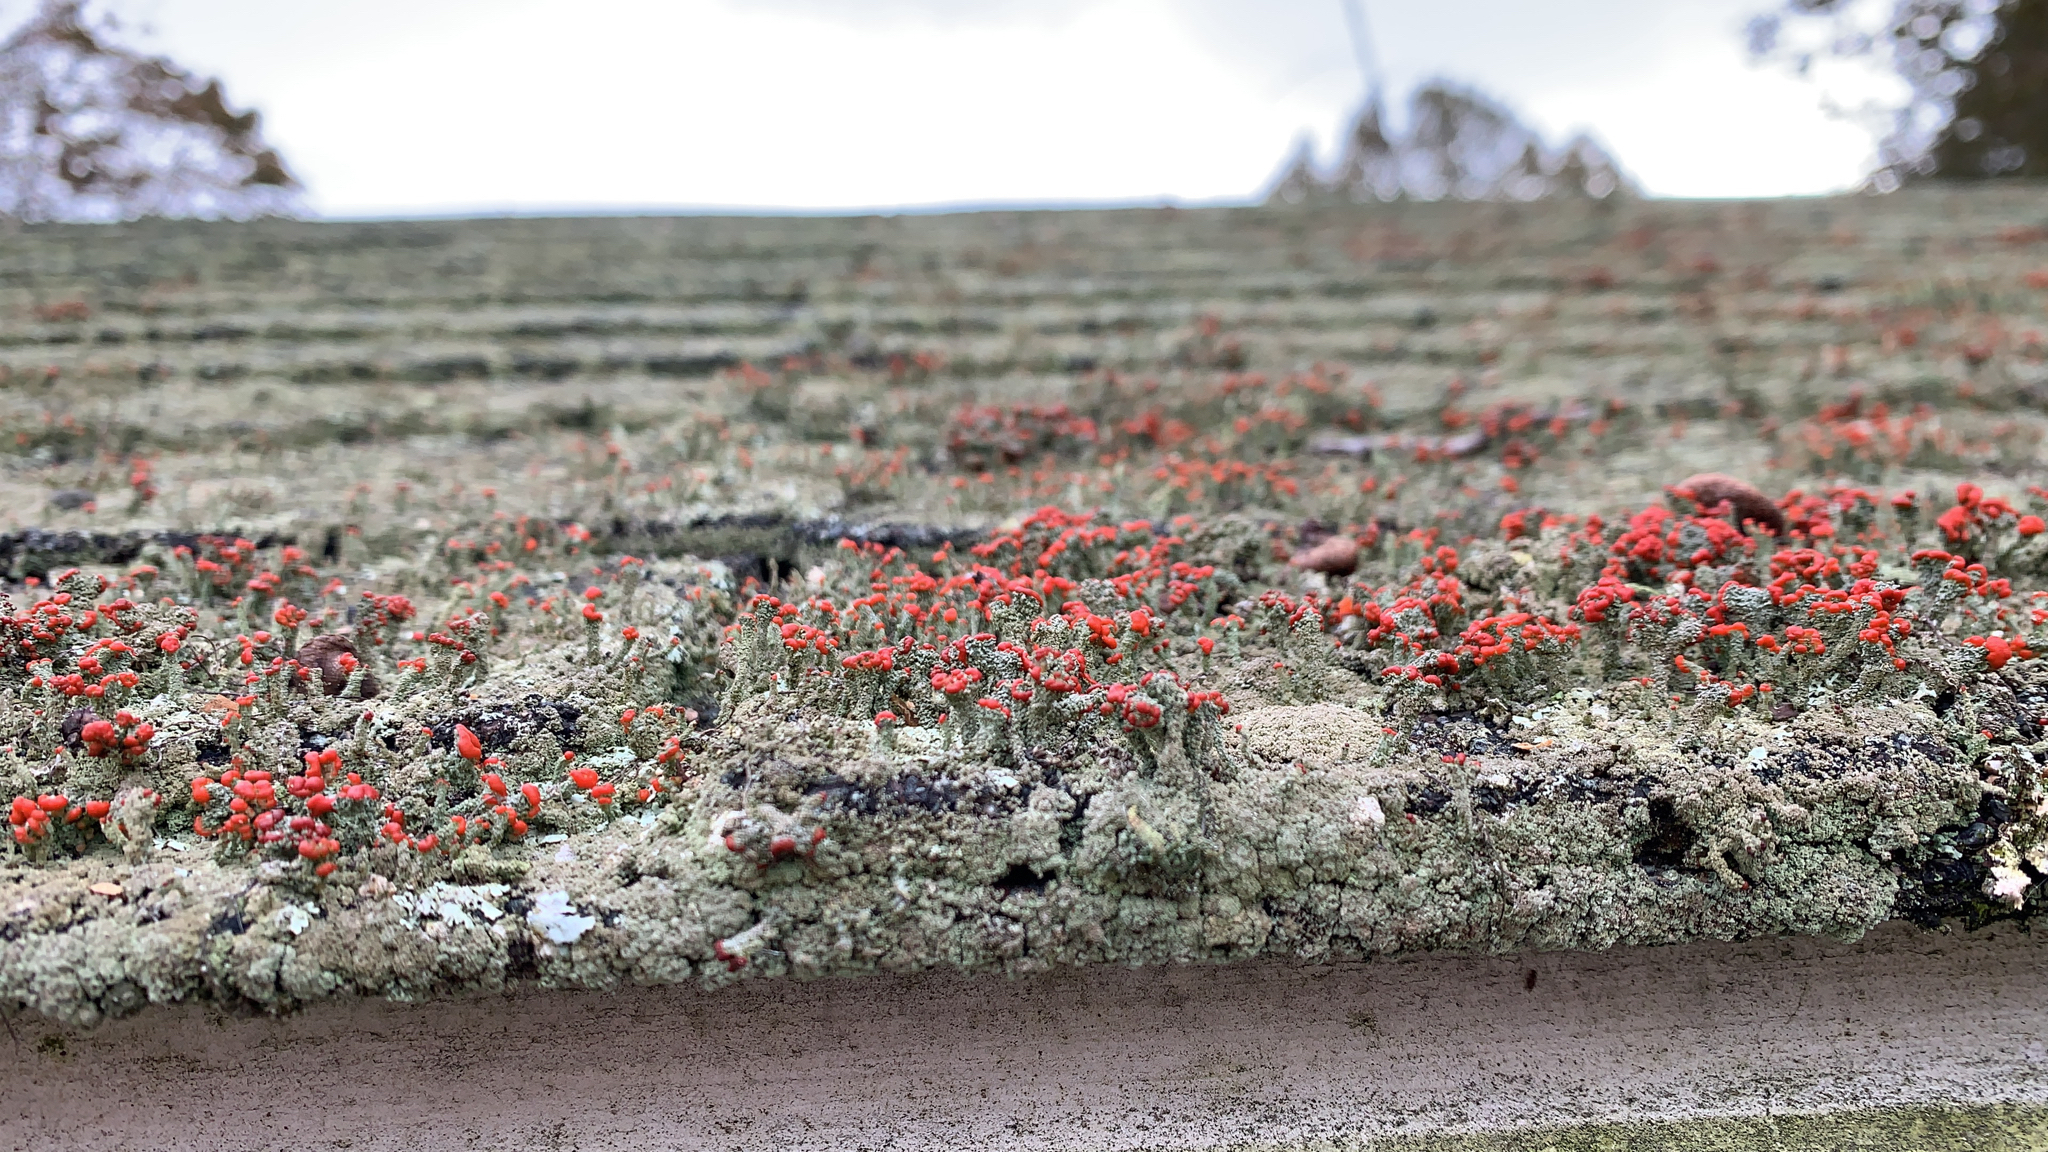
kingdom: Fungi
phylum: Ascomycota
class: Lecanoromycetes
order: Lecanorales
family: Cladoniaceae
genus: Cladonia
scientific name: Cladonia didyma
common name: Southern soldiers
